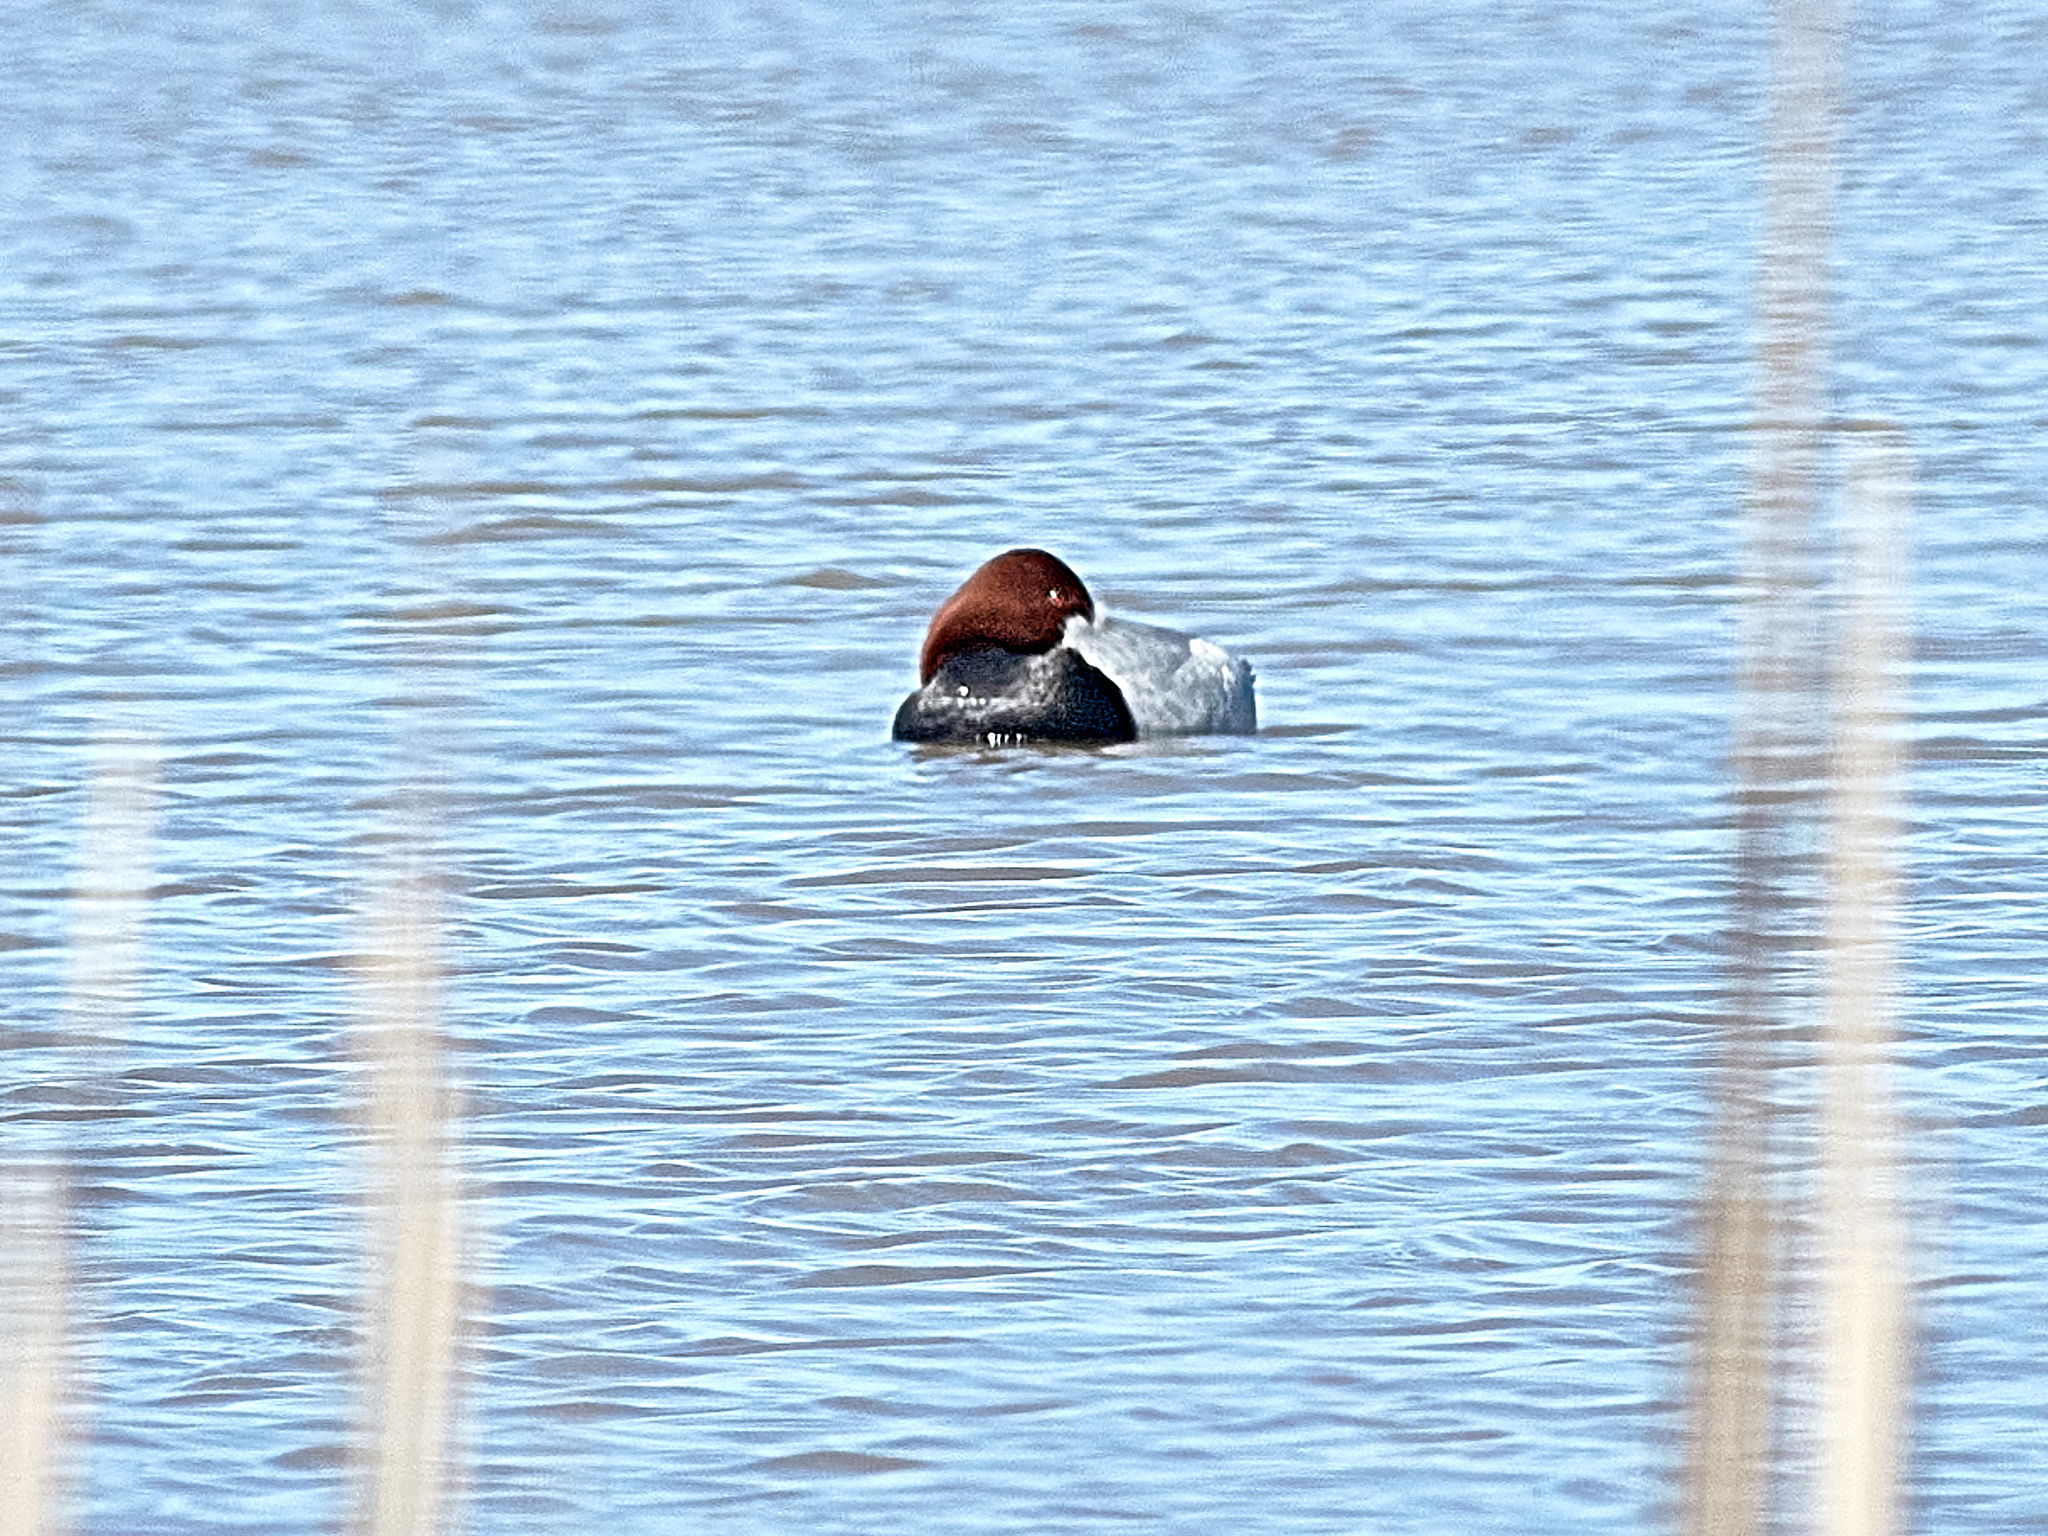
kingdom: Animalia
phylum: Chordata
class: Aves
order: Anseriformes
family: Anatidae
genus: Aythya
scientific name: Aythya ferina
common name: Common pochard
